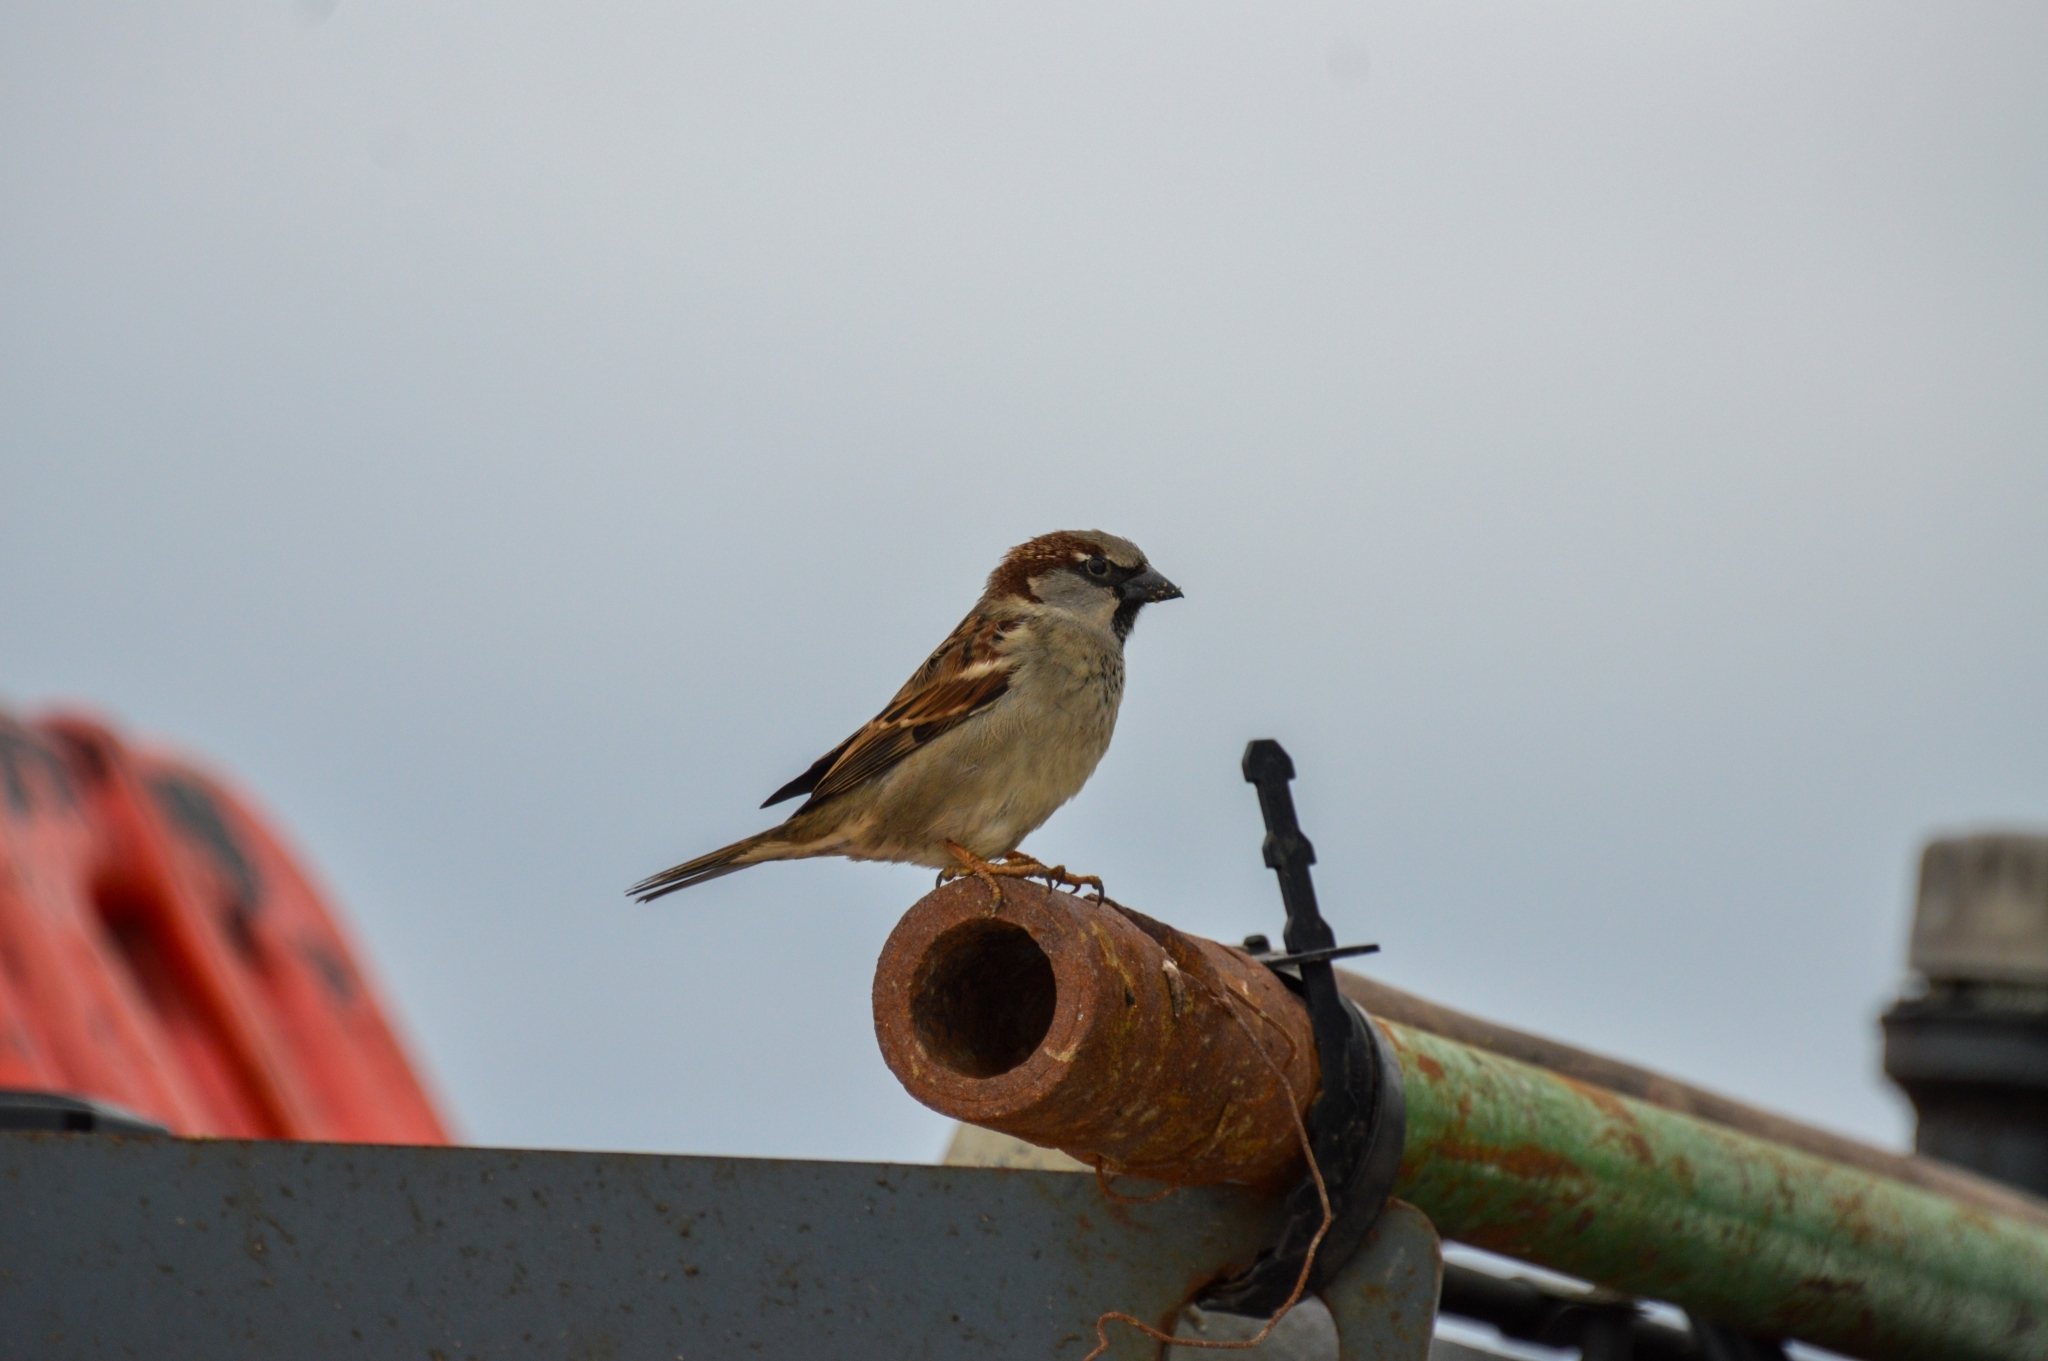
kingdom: Animalia
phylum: Chordata
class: Aves
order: Passeriformes
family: Passeridae
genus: Passer
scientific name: Passer domesticus
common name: House sparrow
